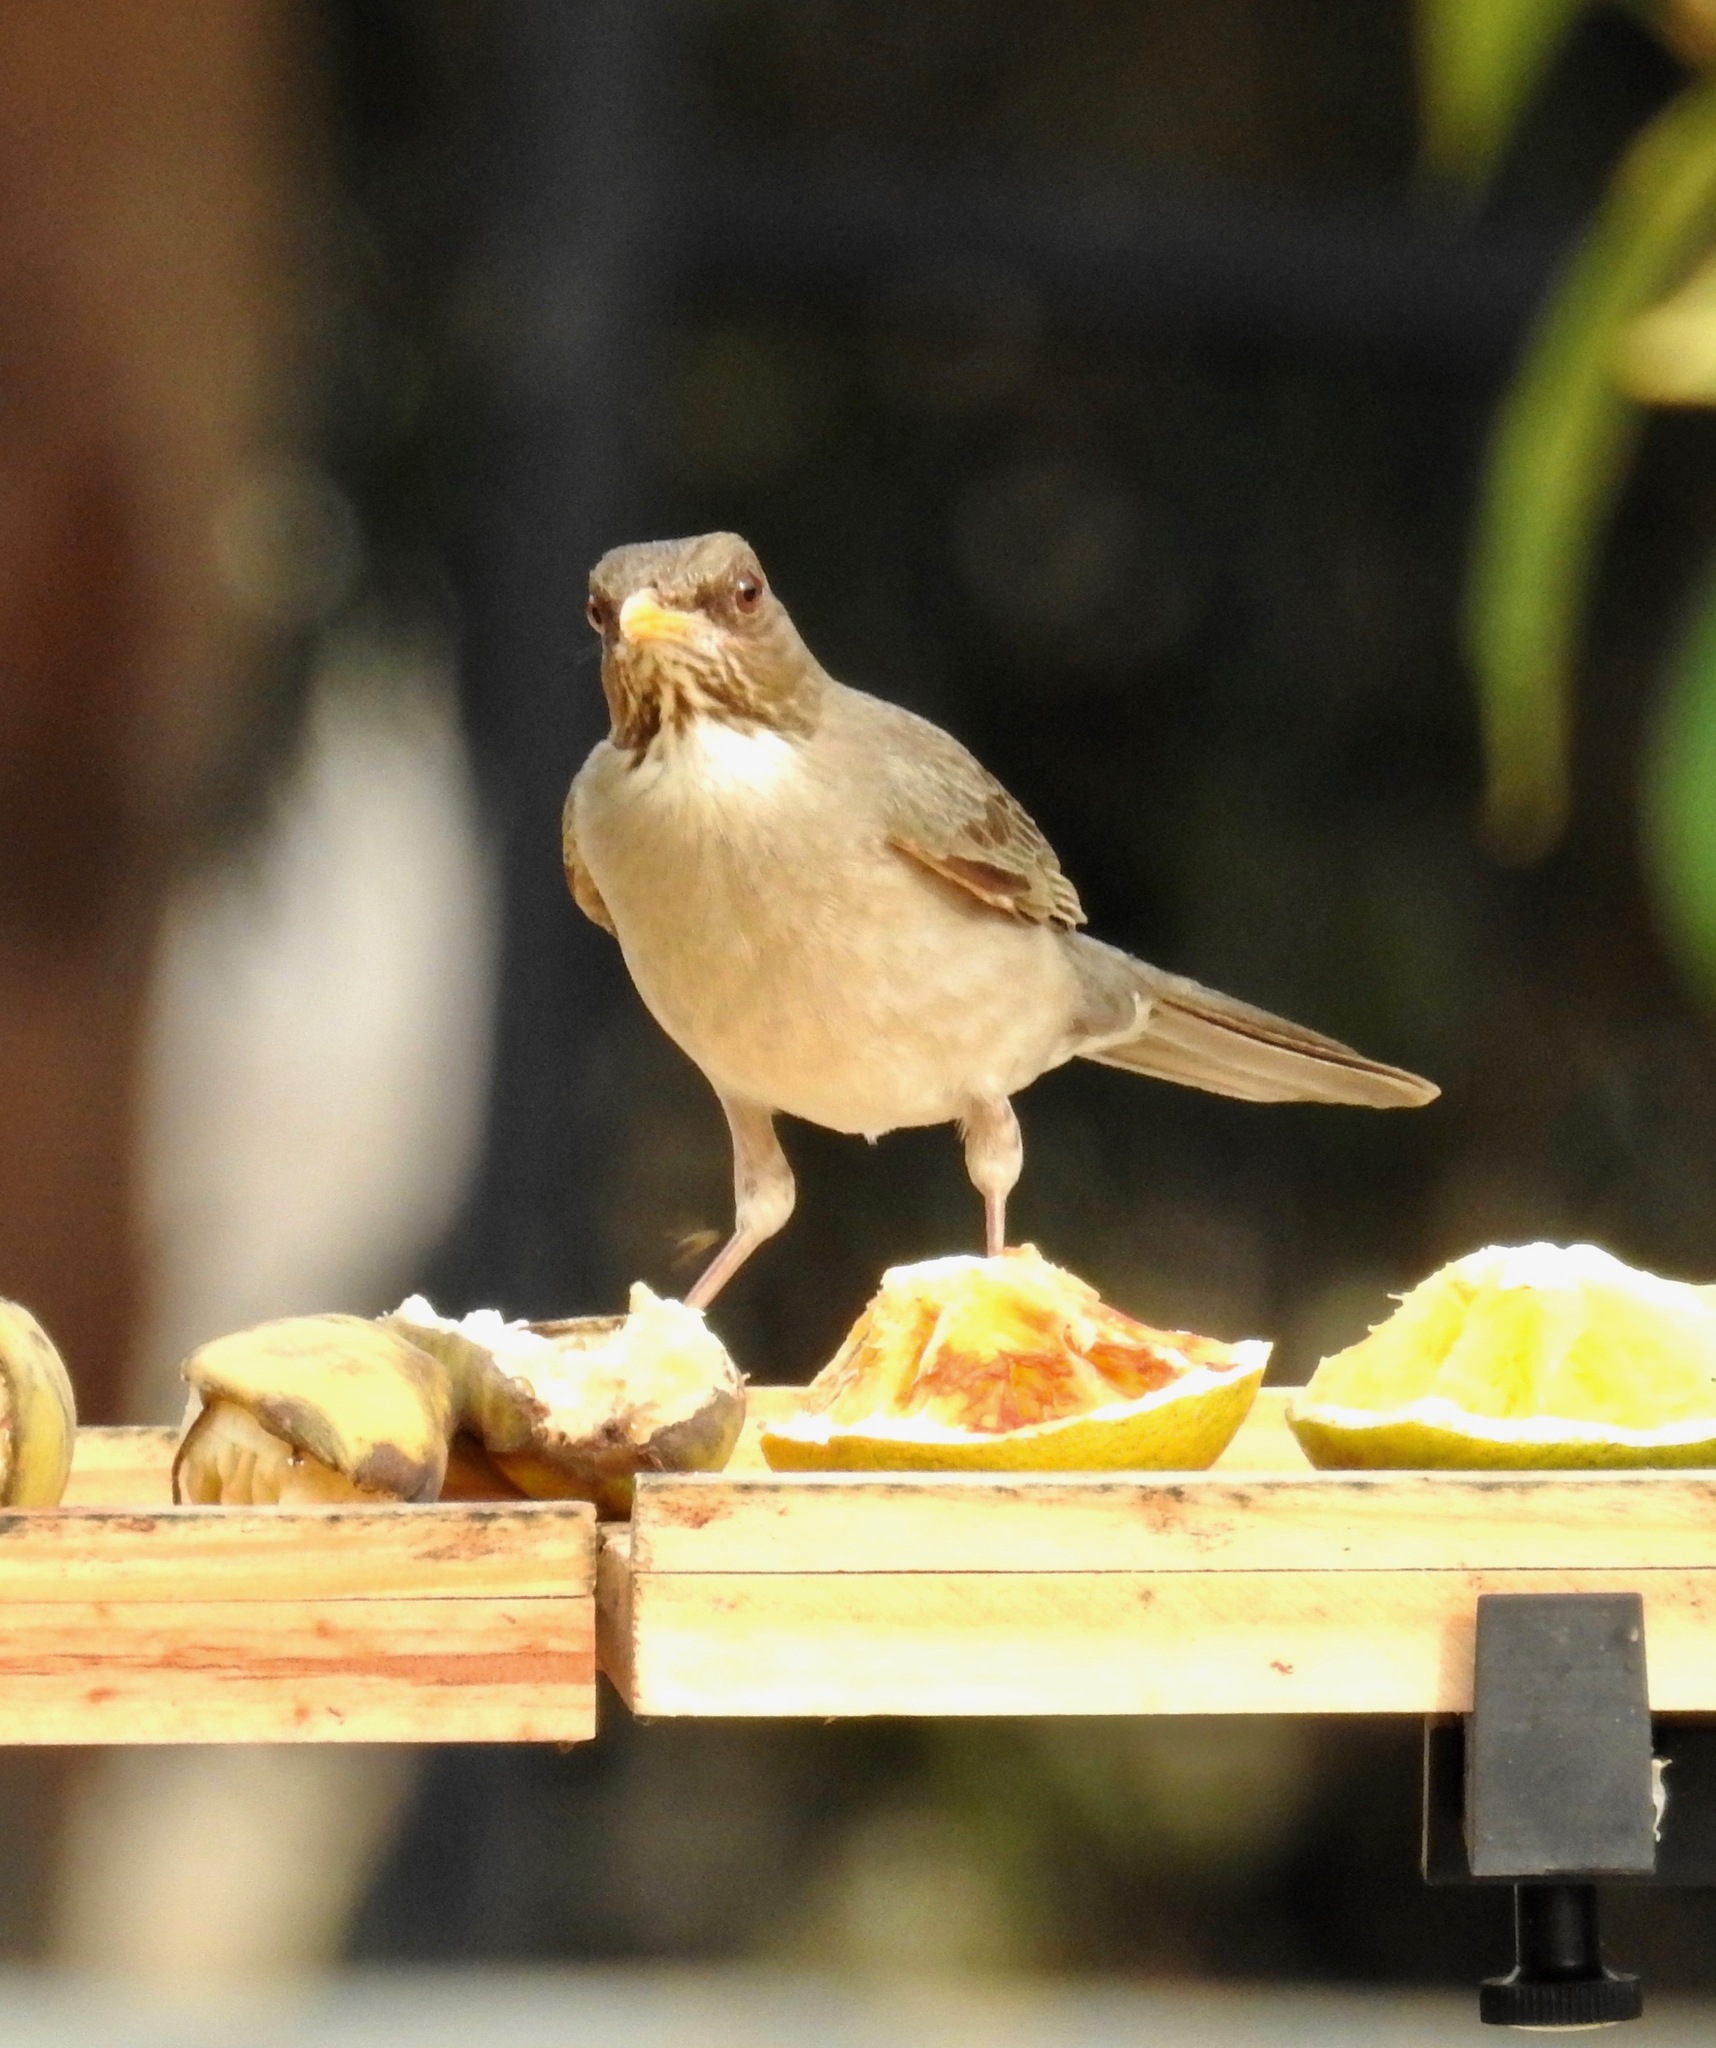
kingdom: Animalia
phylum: Chordata
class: Aves
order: Passeriformes
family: Turdidae
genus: Turdus
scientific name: Turdus amaurochalinus
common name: Creamy-bellied thrush
